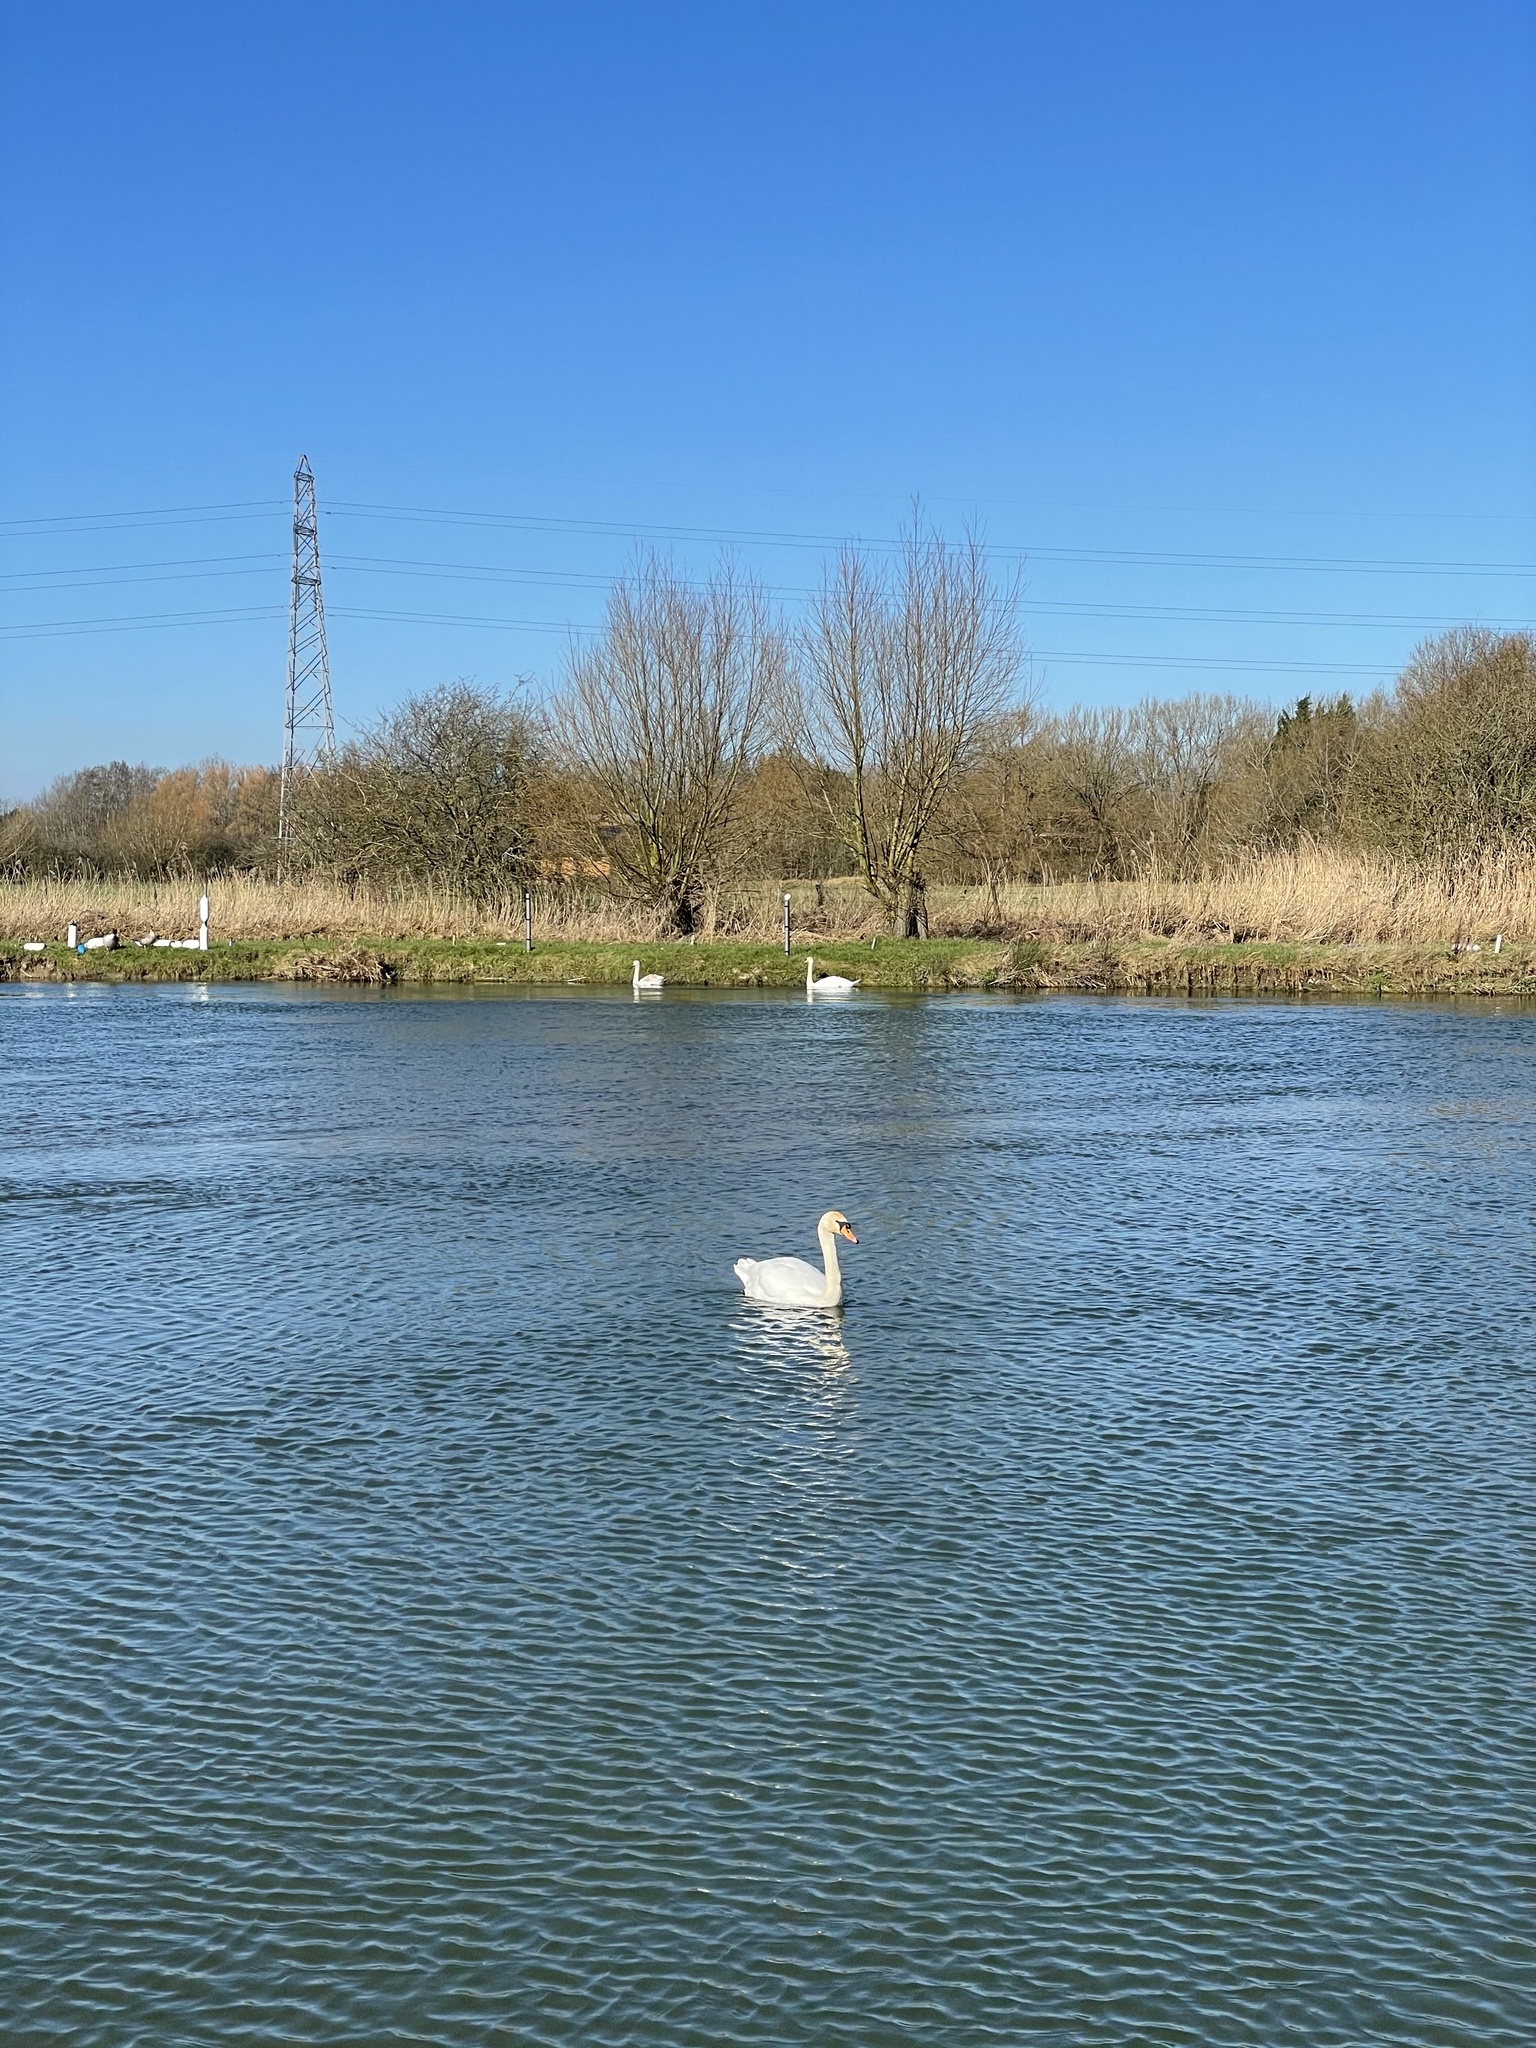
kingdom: Animalia
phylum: Chordata
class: Aves
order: Anseriformes
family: Anatidae
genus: Cygnus
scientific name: Cygnus olor
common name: Mute swan
